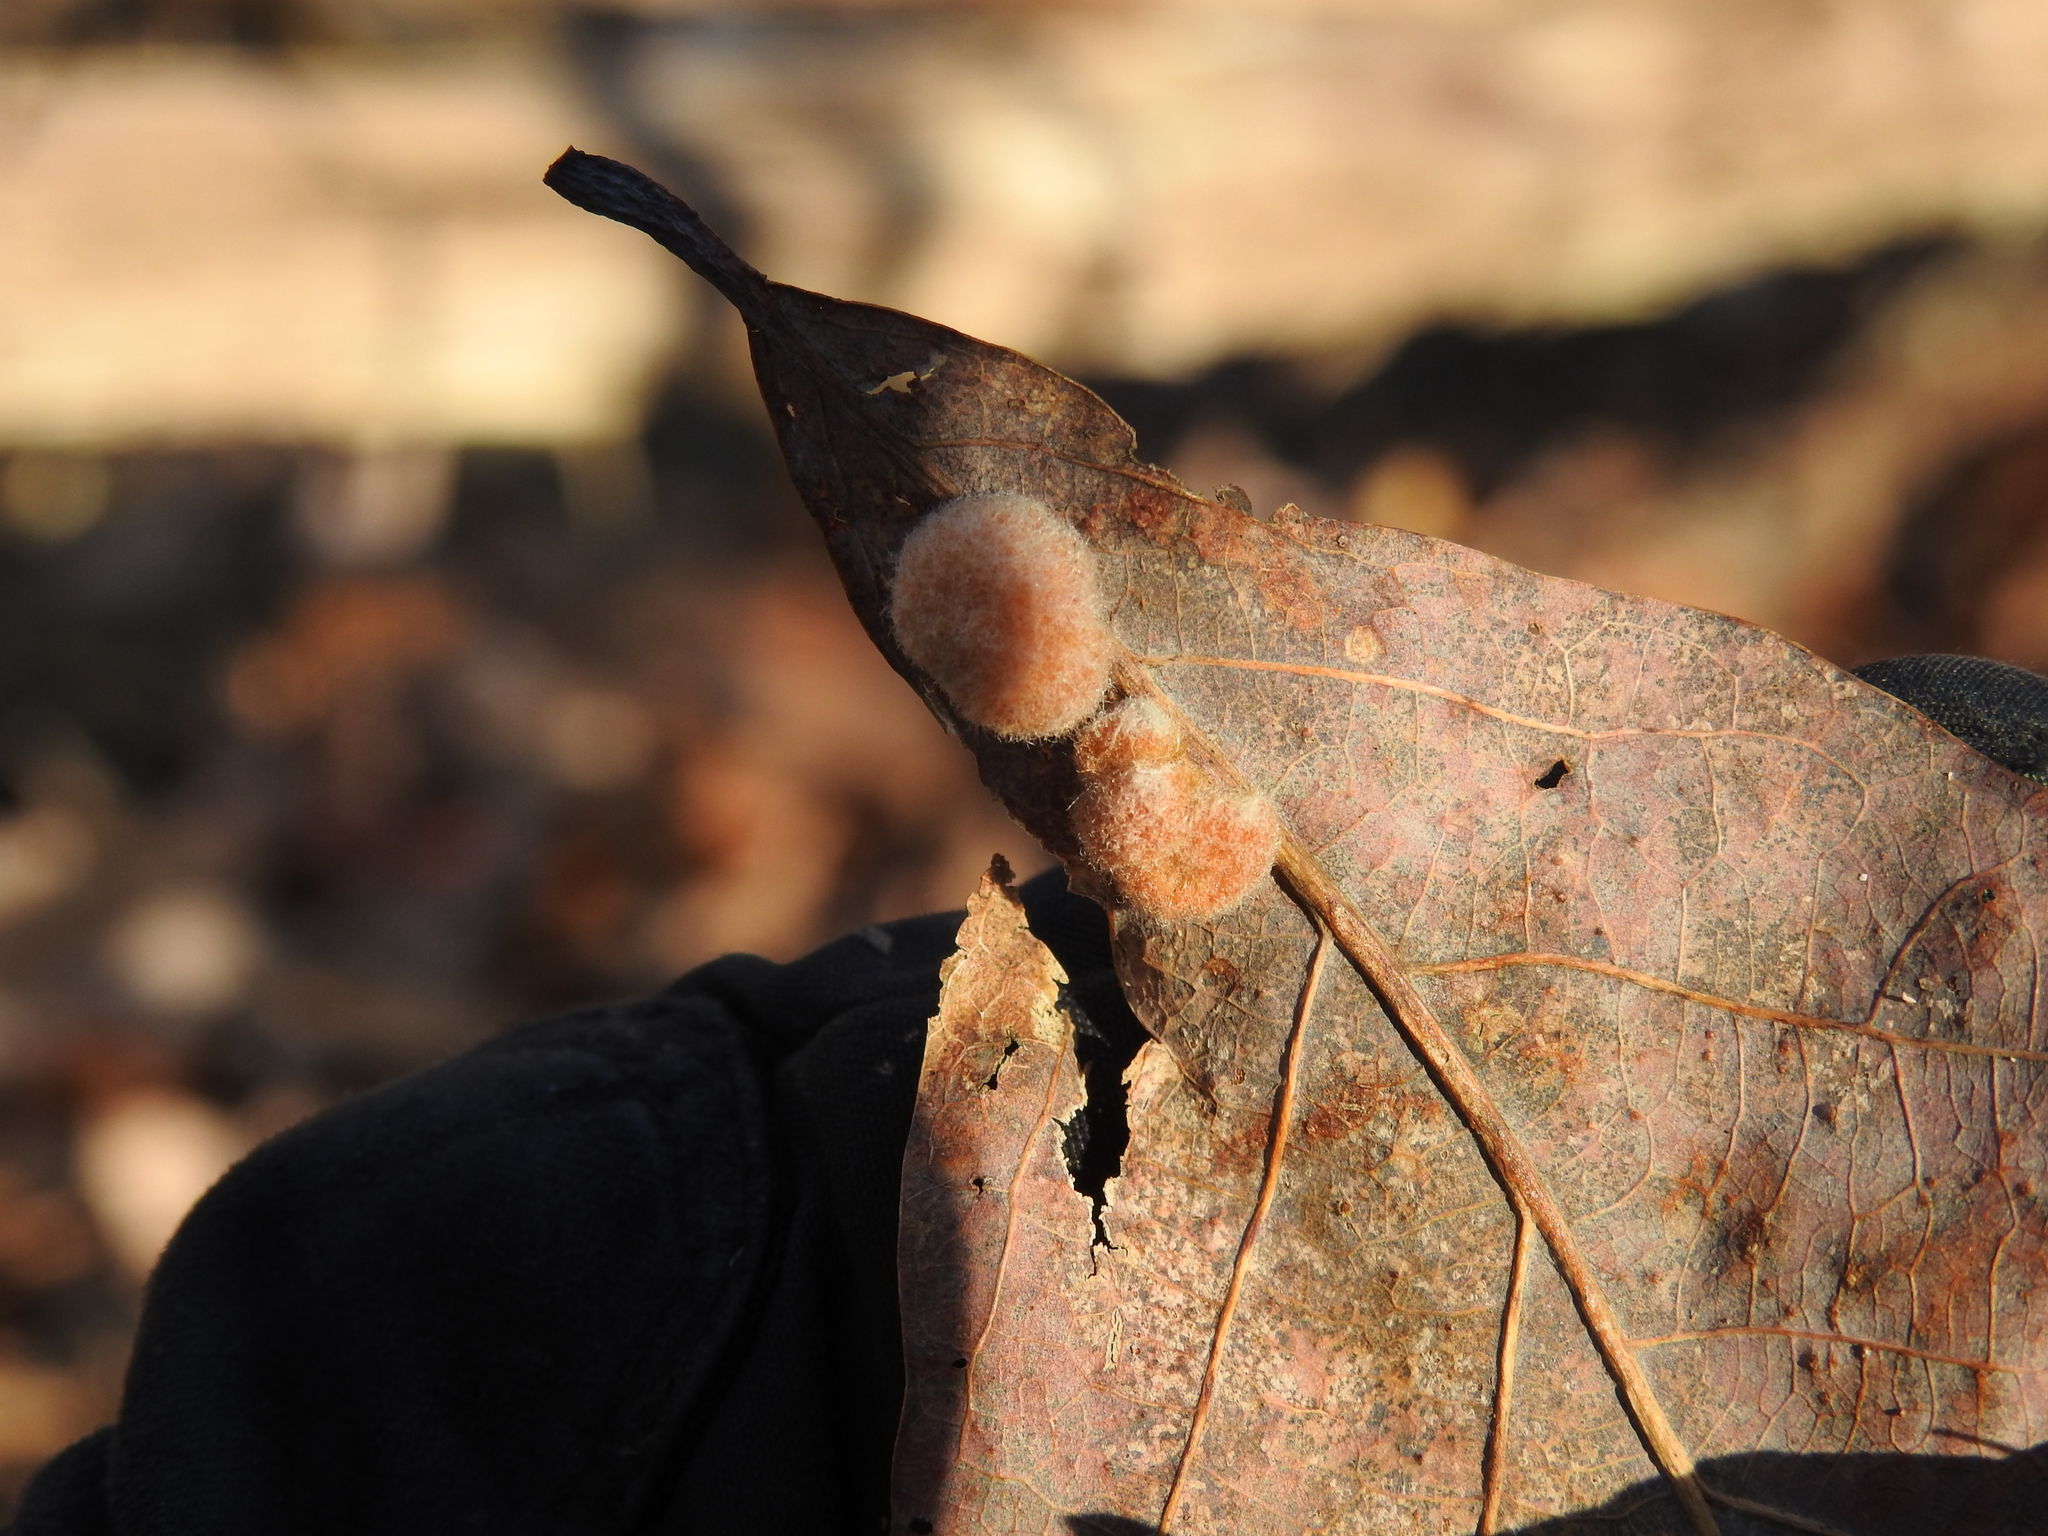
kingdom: Animalia
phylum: Arthropoda
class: Insecta
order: Hymenoptera
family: Cynipidae
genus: Andricus
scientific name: Andricus quercusflocci
